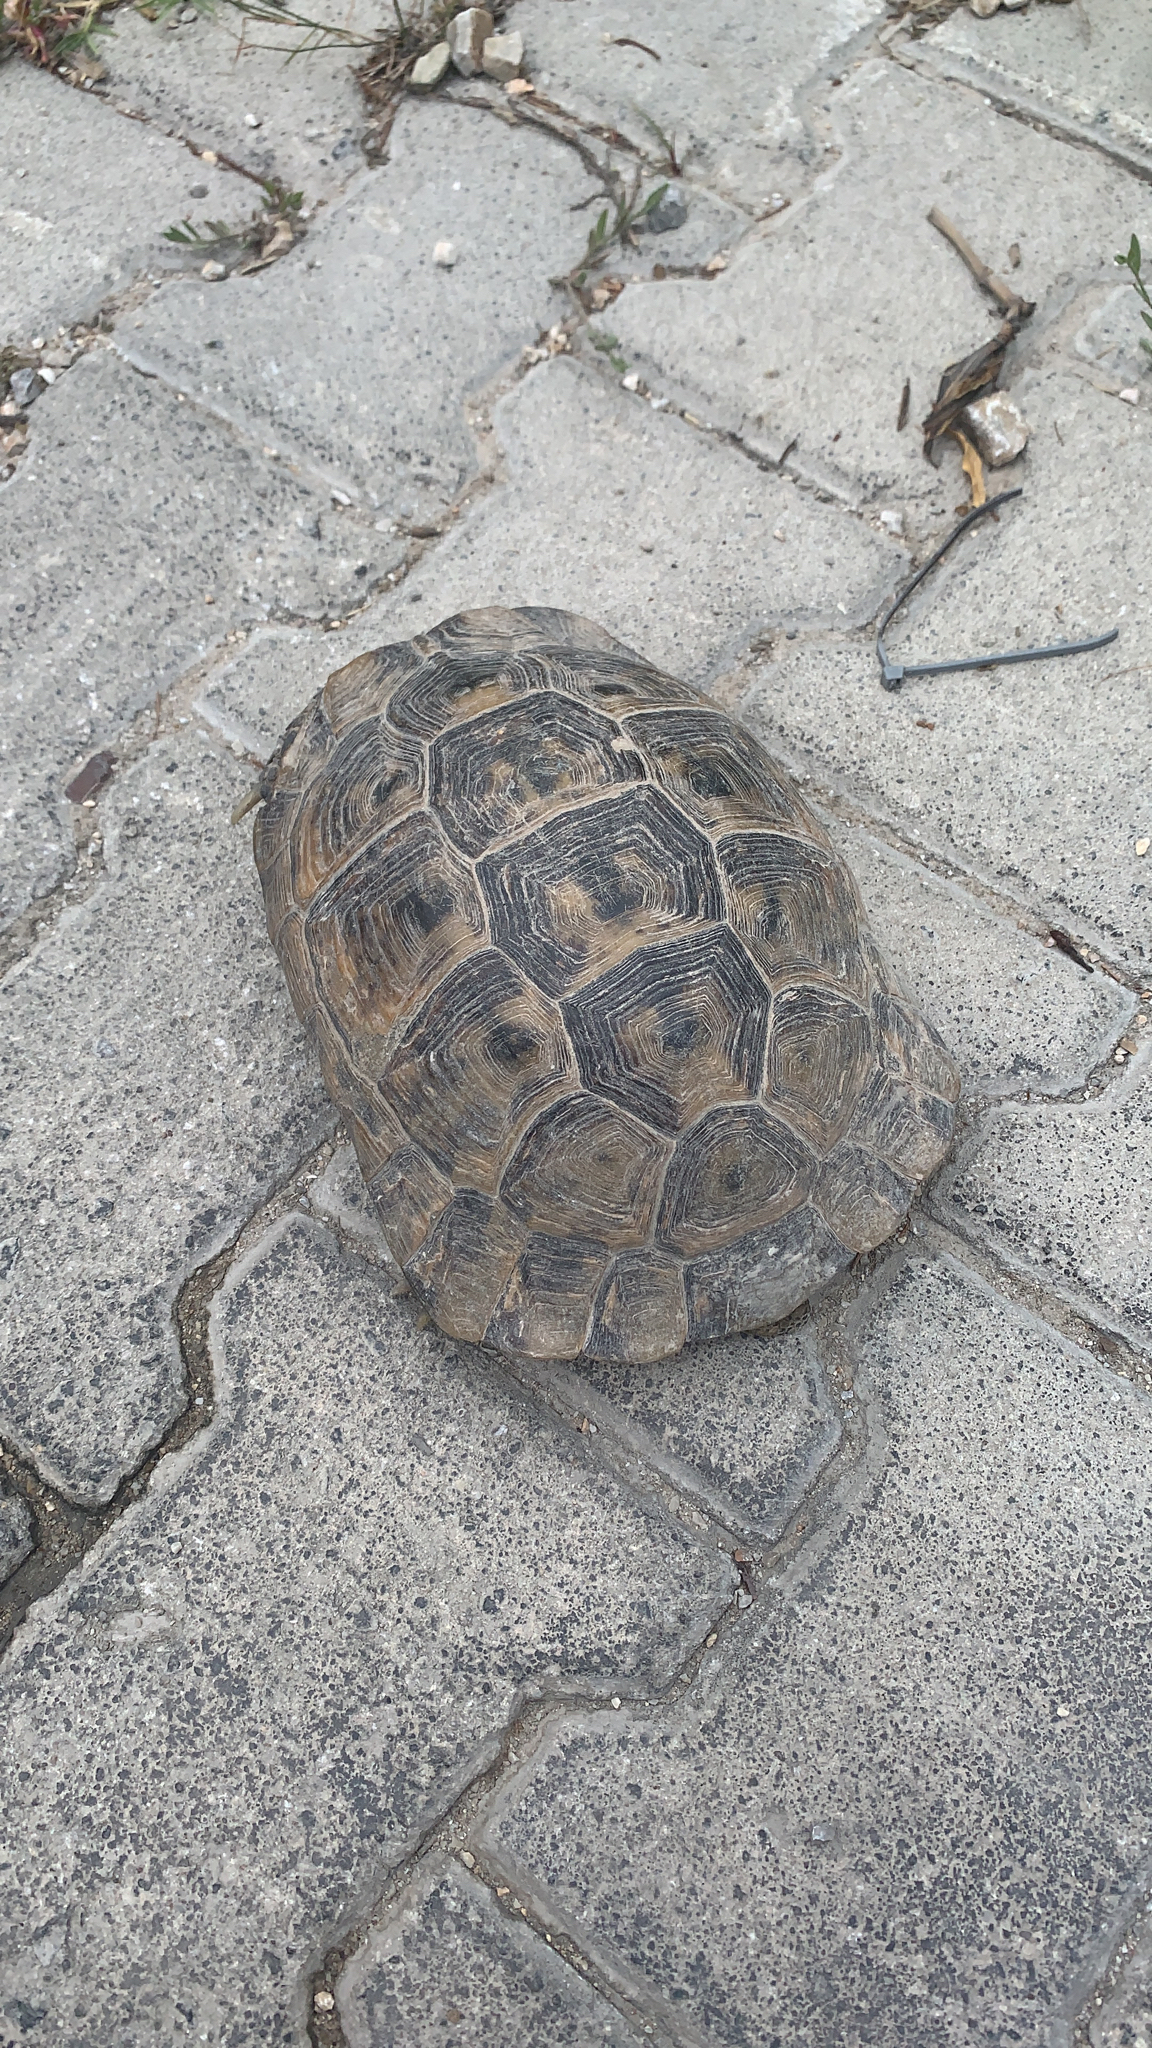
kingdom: Animalia
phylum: Chordata
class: Testudines
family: Testudinidae
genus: Testudo
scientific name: Testudo graeca
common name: Common tortoise
